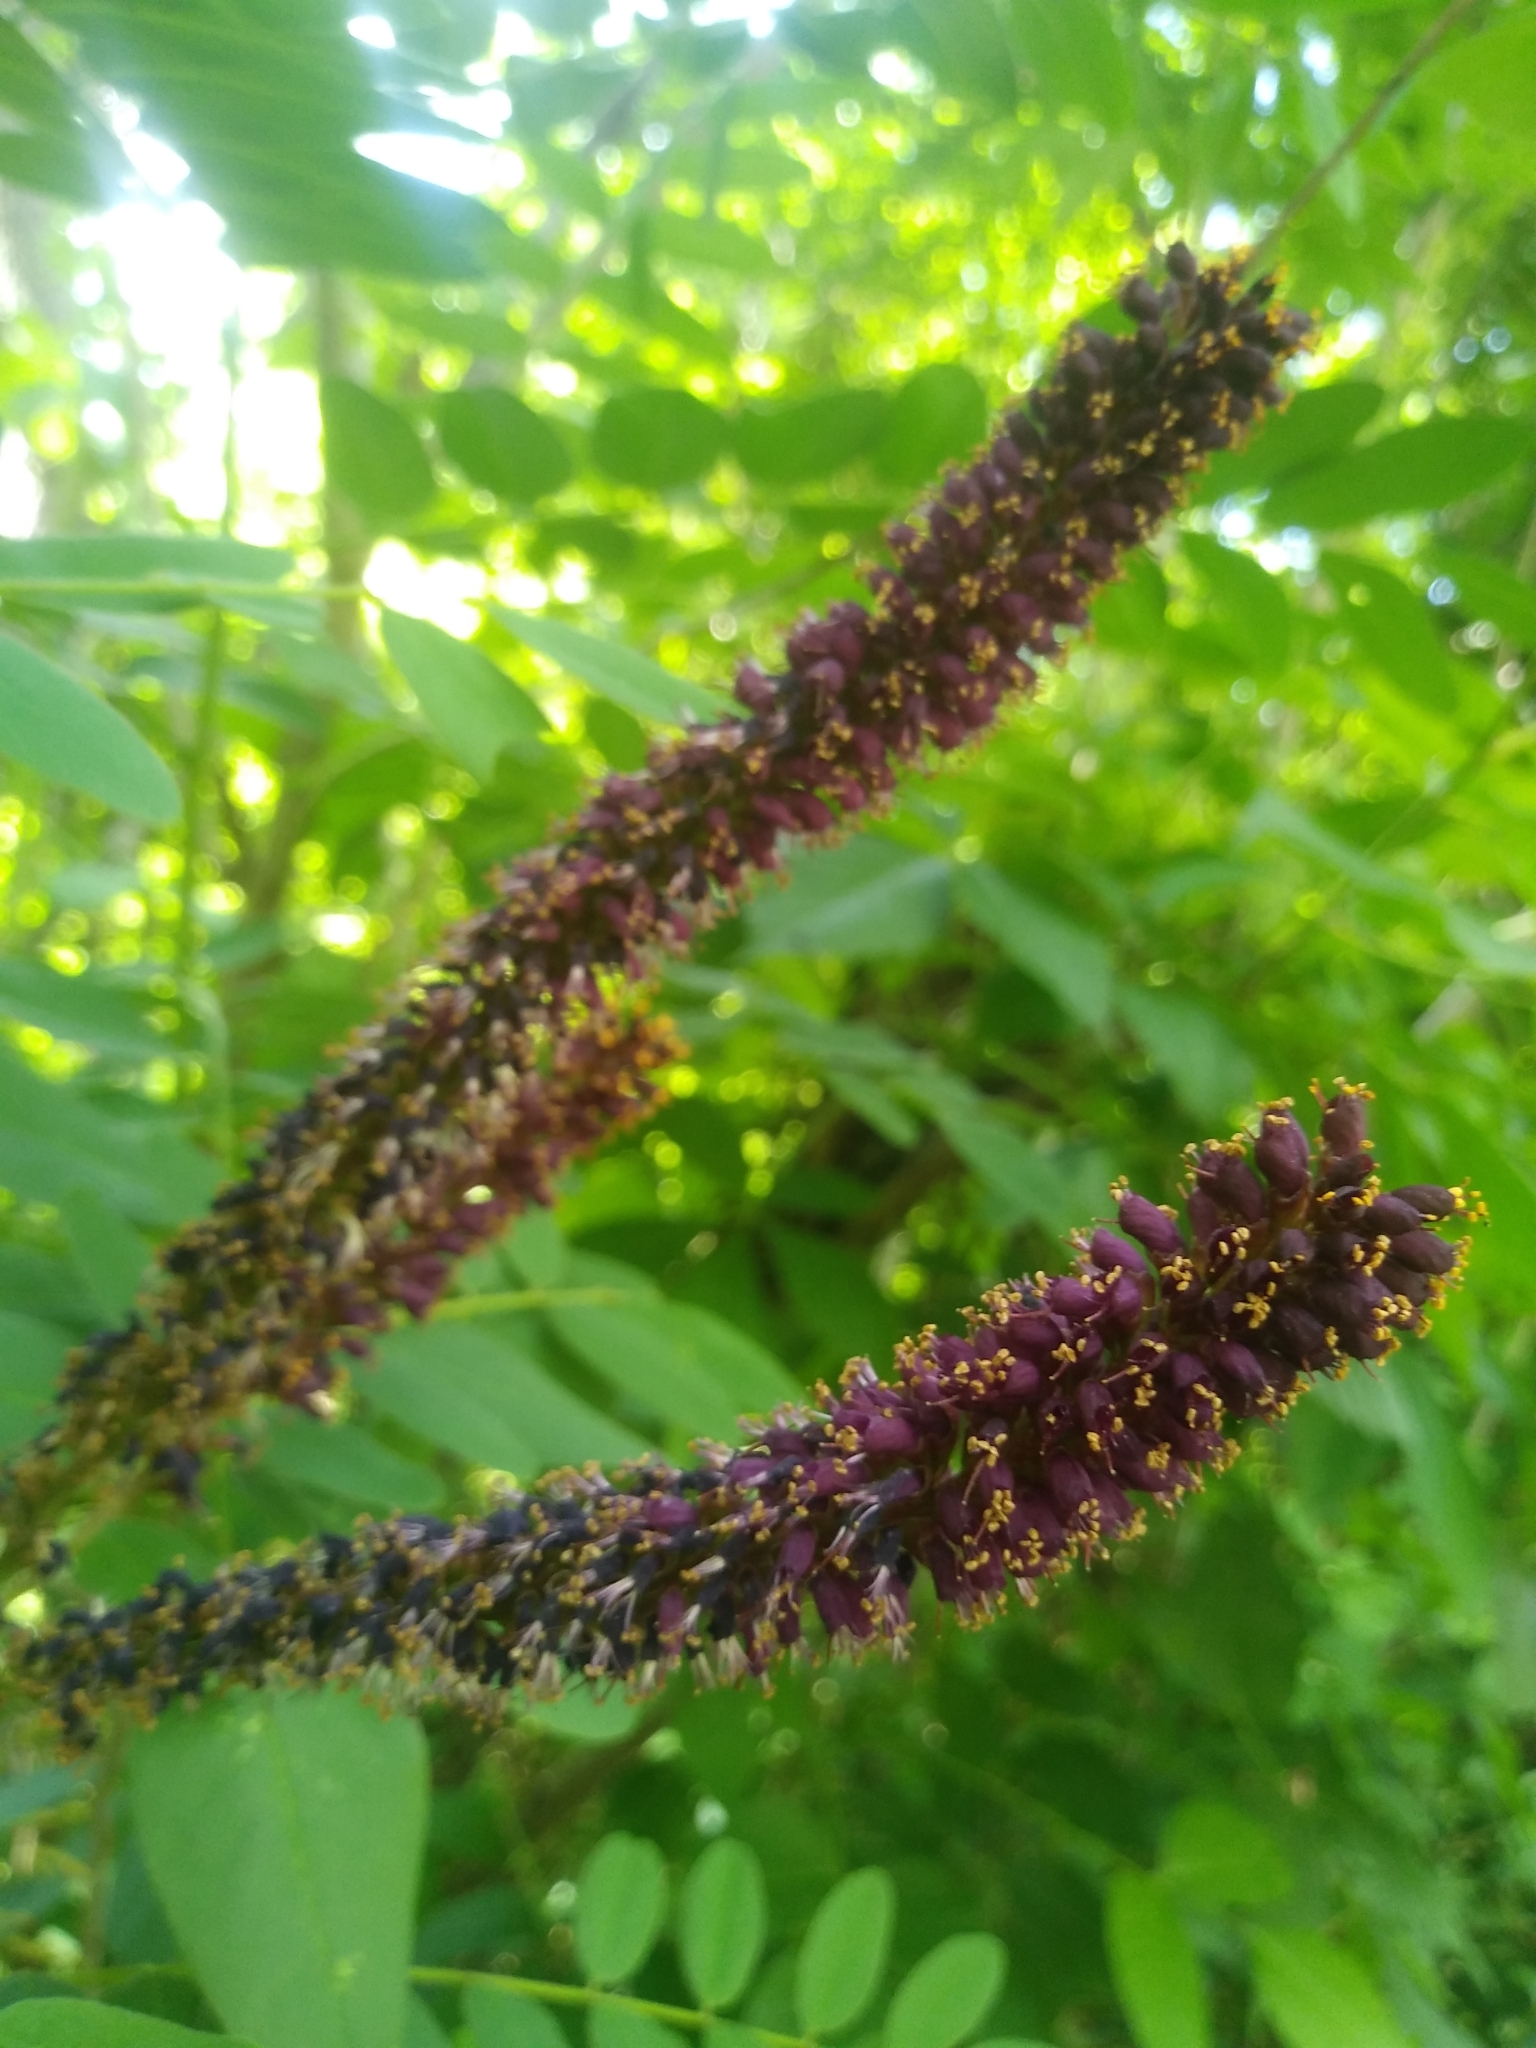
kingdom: Plantae
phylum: Tracheophyta
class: Magnoliopsida
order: Fabales
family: Fabaceae
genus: Amorpha
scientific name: Amorpha fruticosa
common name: False indigo
